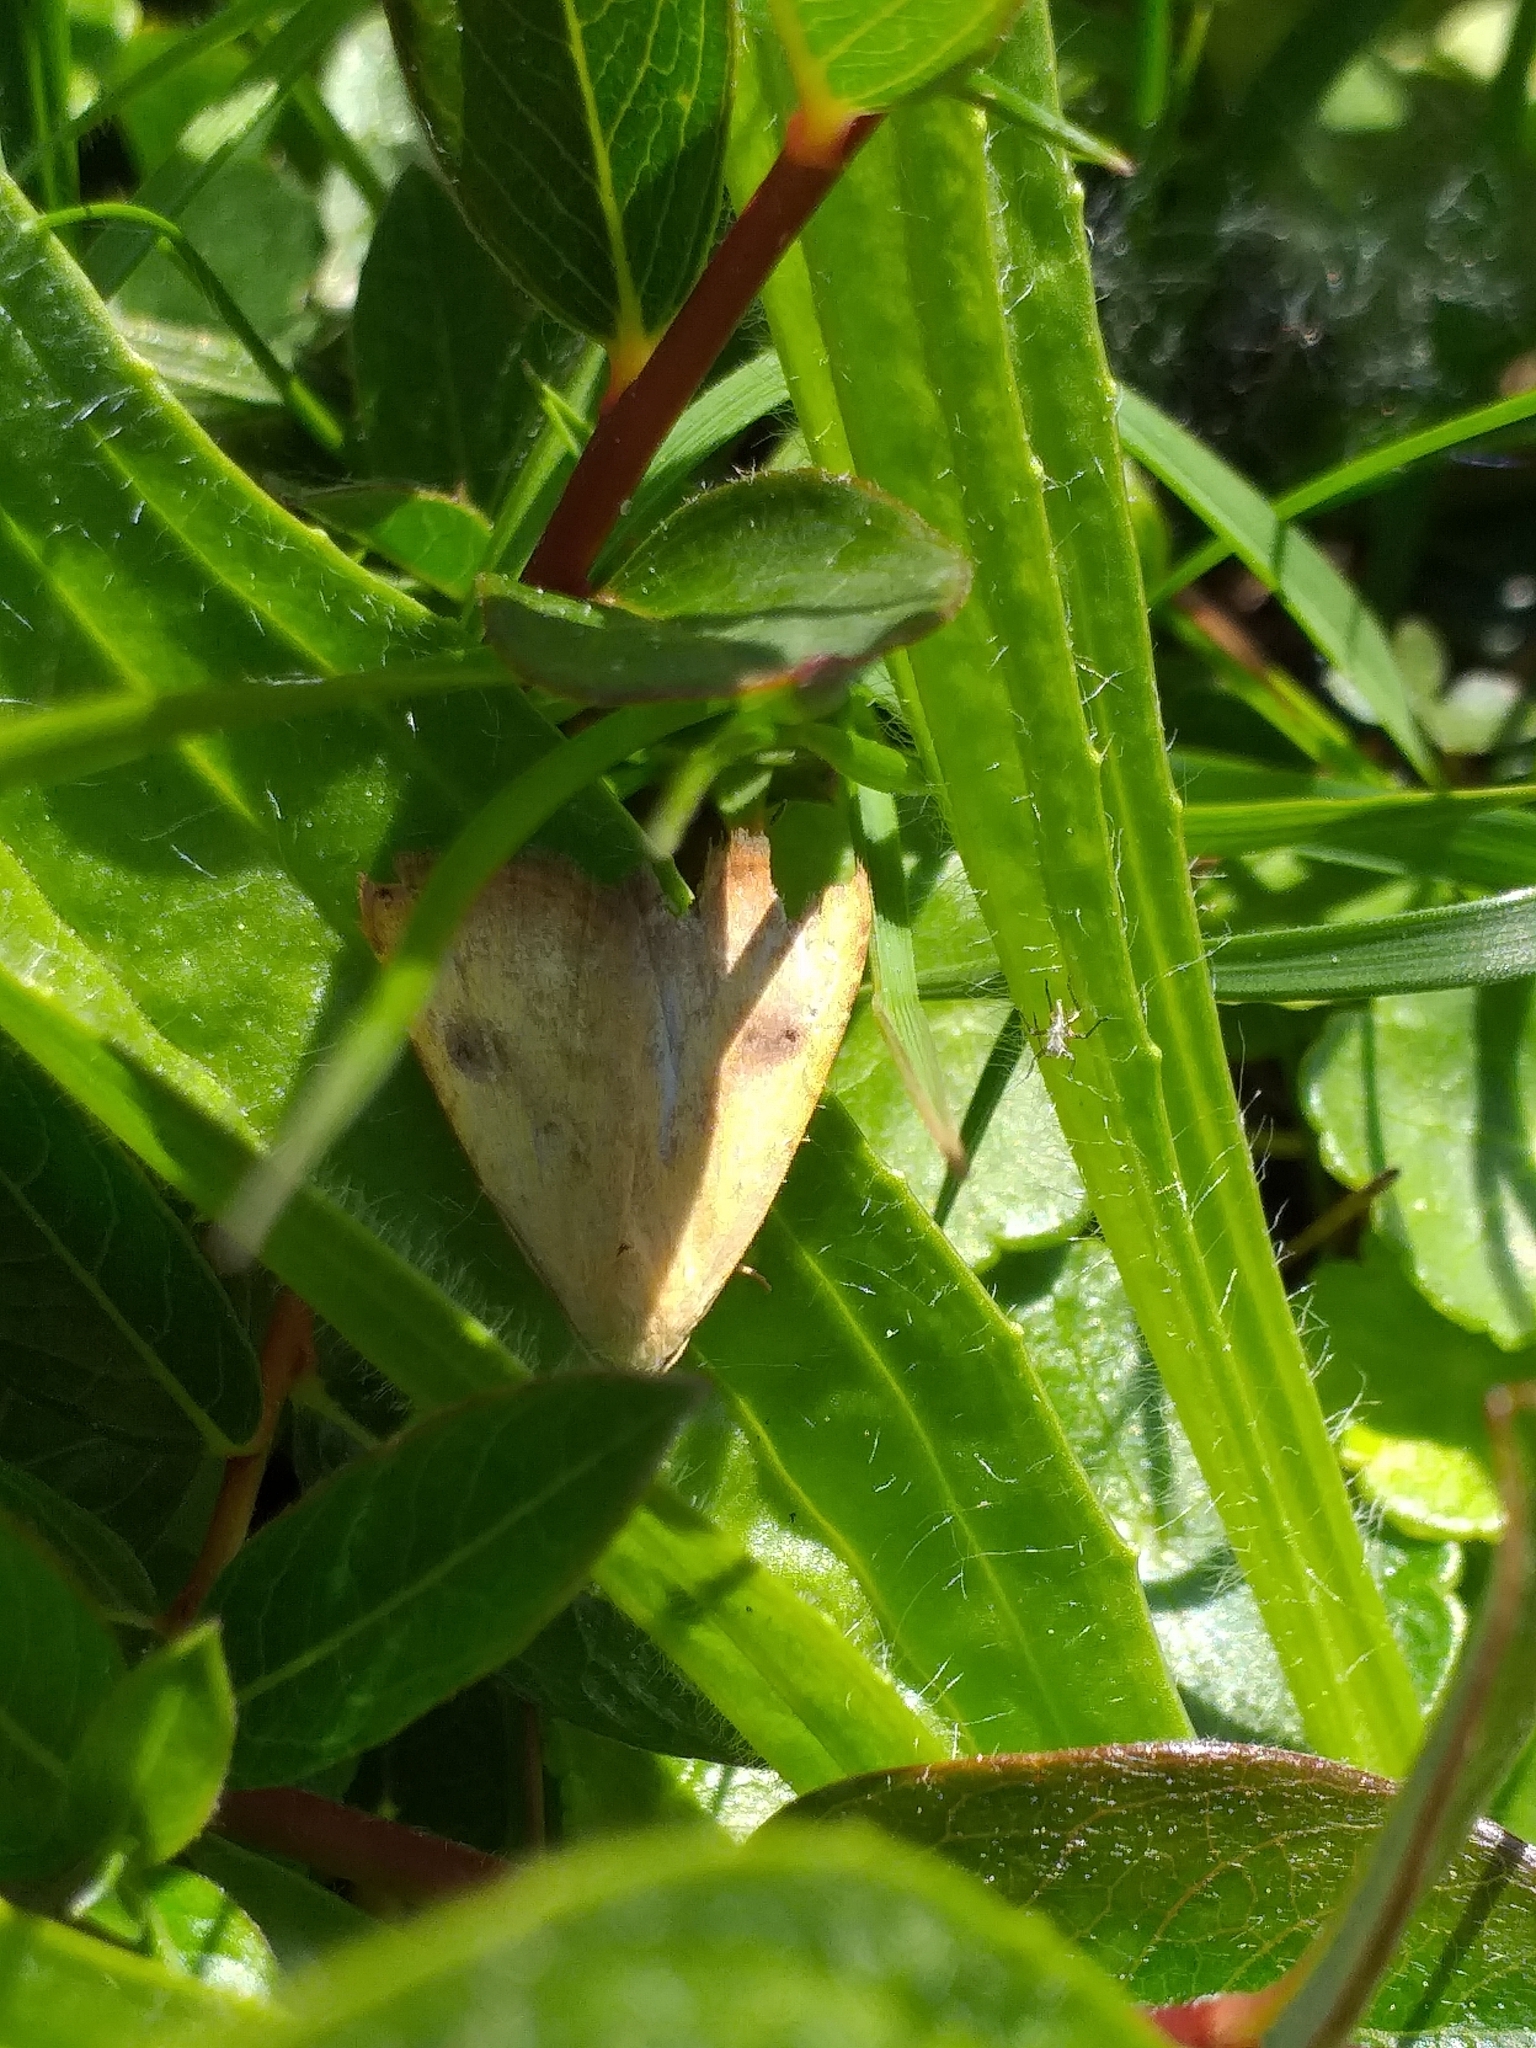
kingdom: Animalia
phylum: Arthropoda
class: Insecta
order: Lepidoptera
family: Erebidae
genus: Rivula
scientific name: Rivula sericealis
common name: Straw dot
